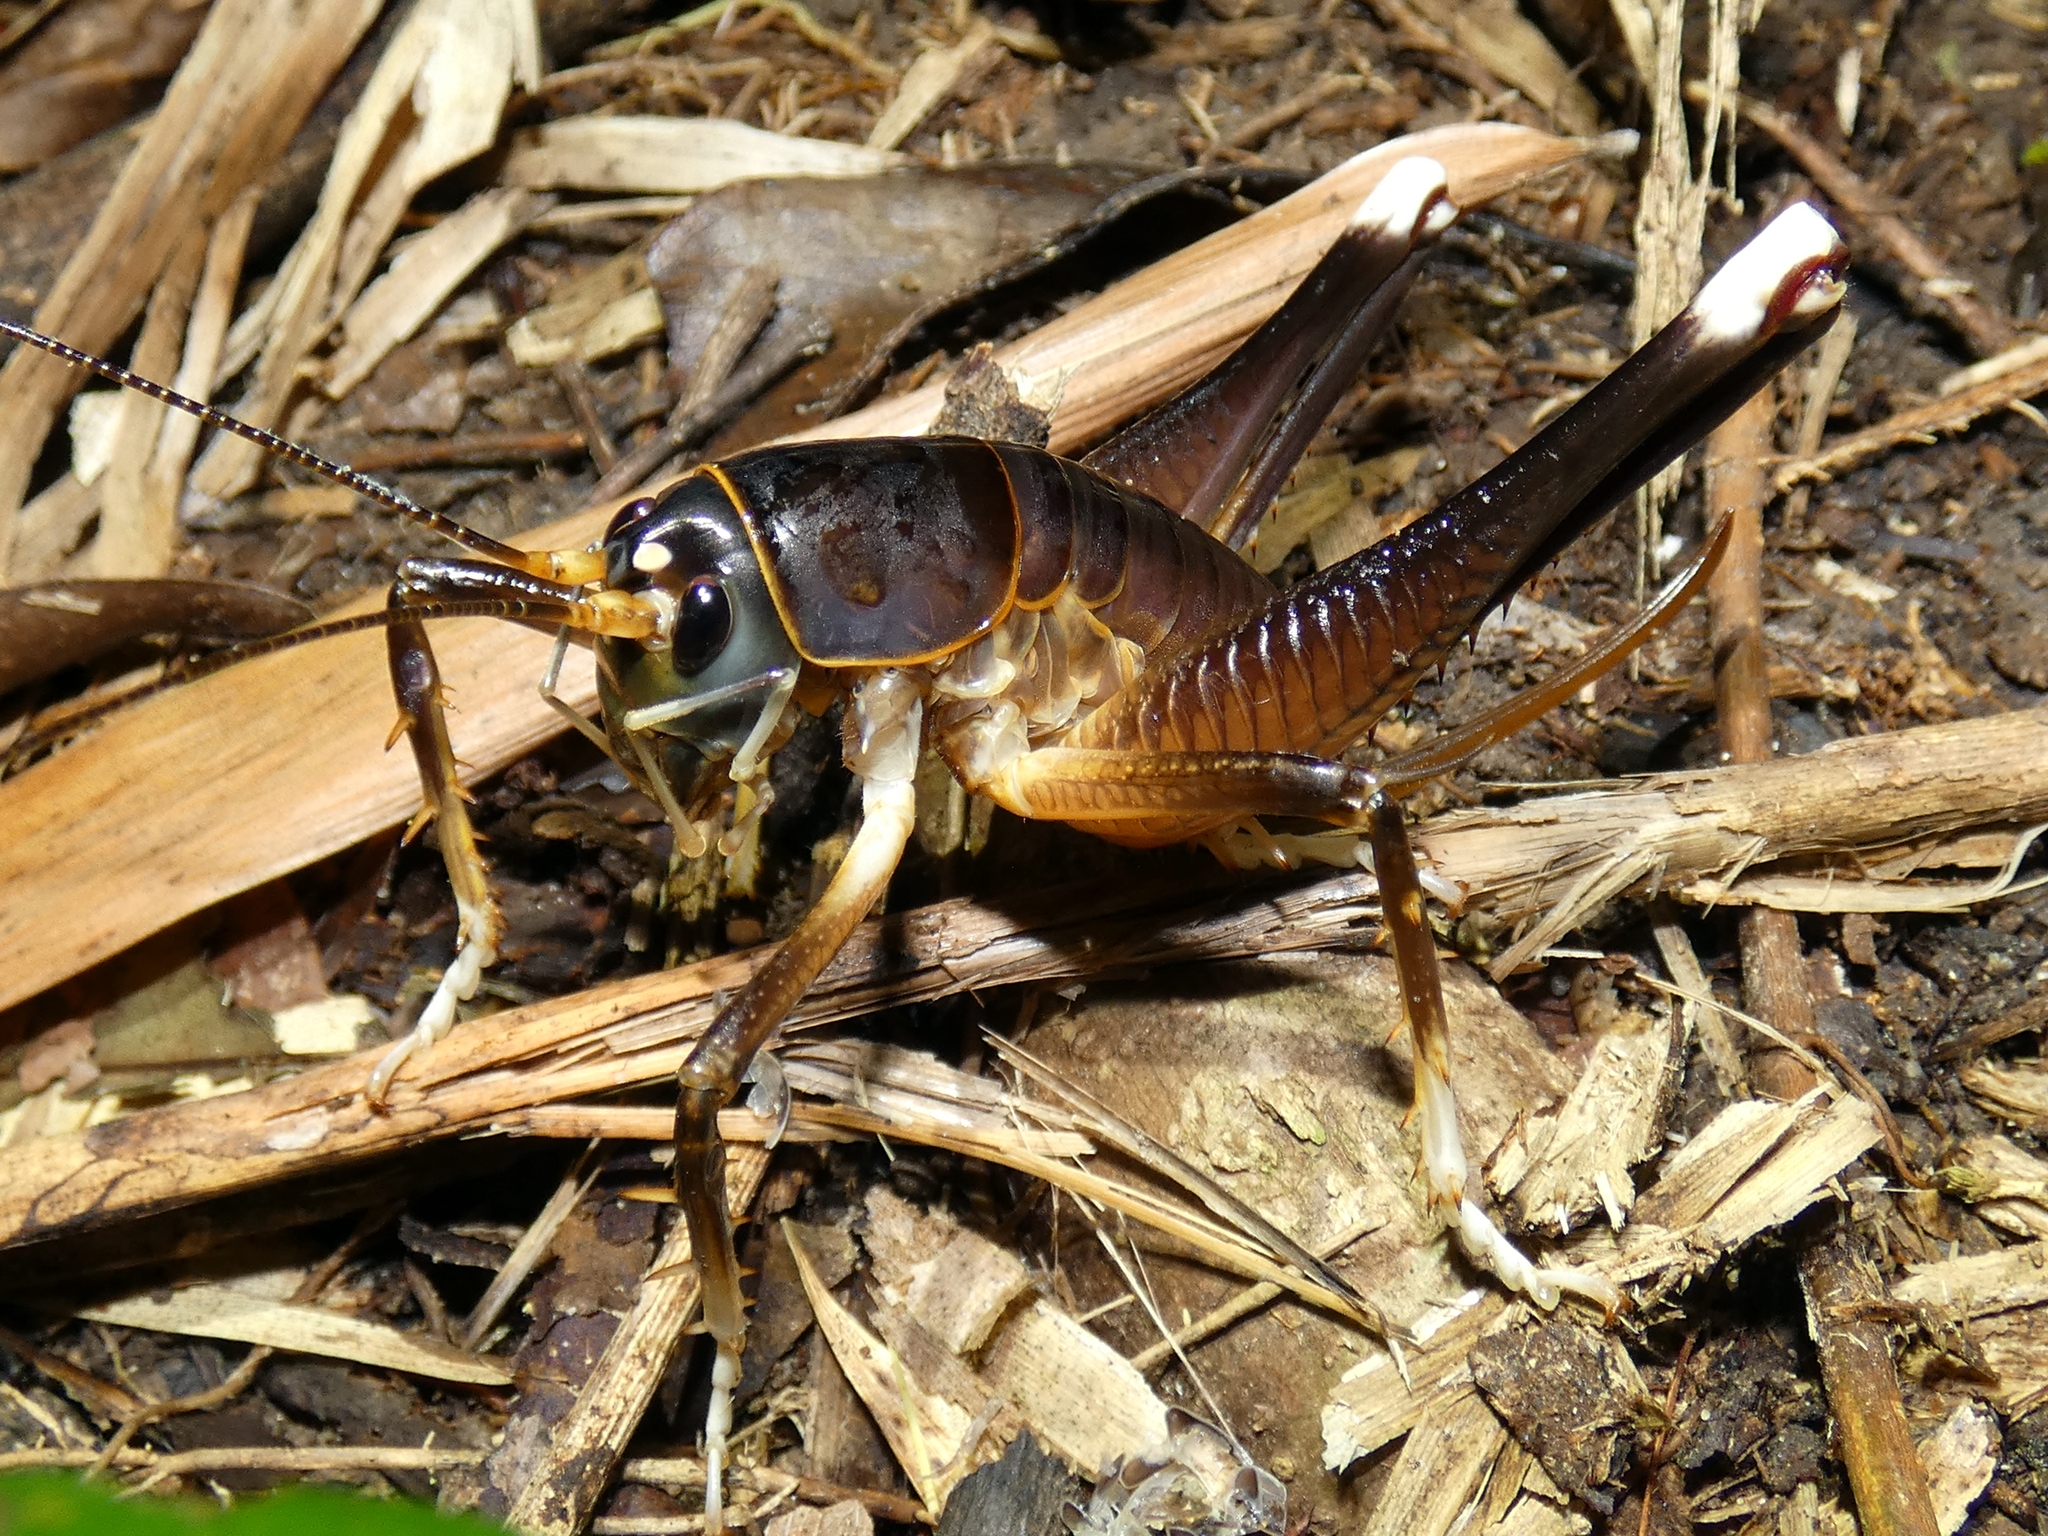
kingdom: Animalia
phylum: Arthropoda
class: Insecta
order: Orthoptera
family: Anostostomatidae
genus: Penalva
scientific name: Penalva flavocalceata
